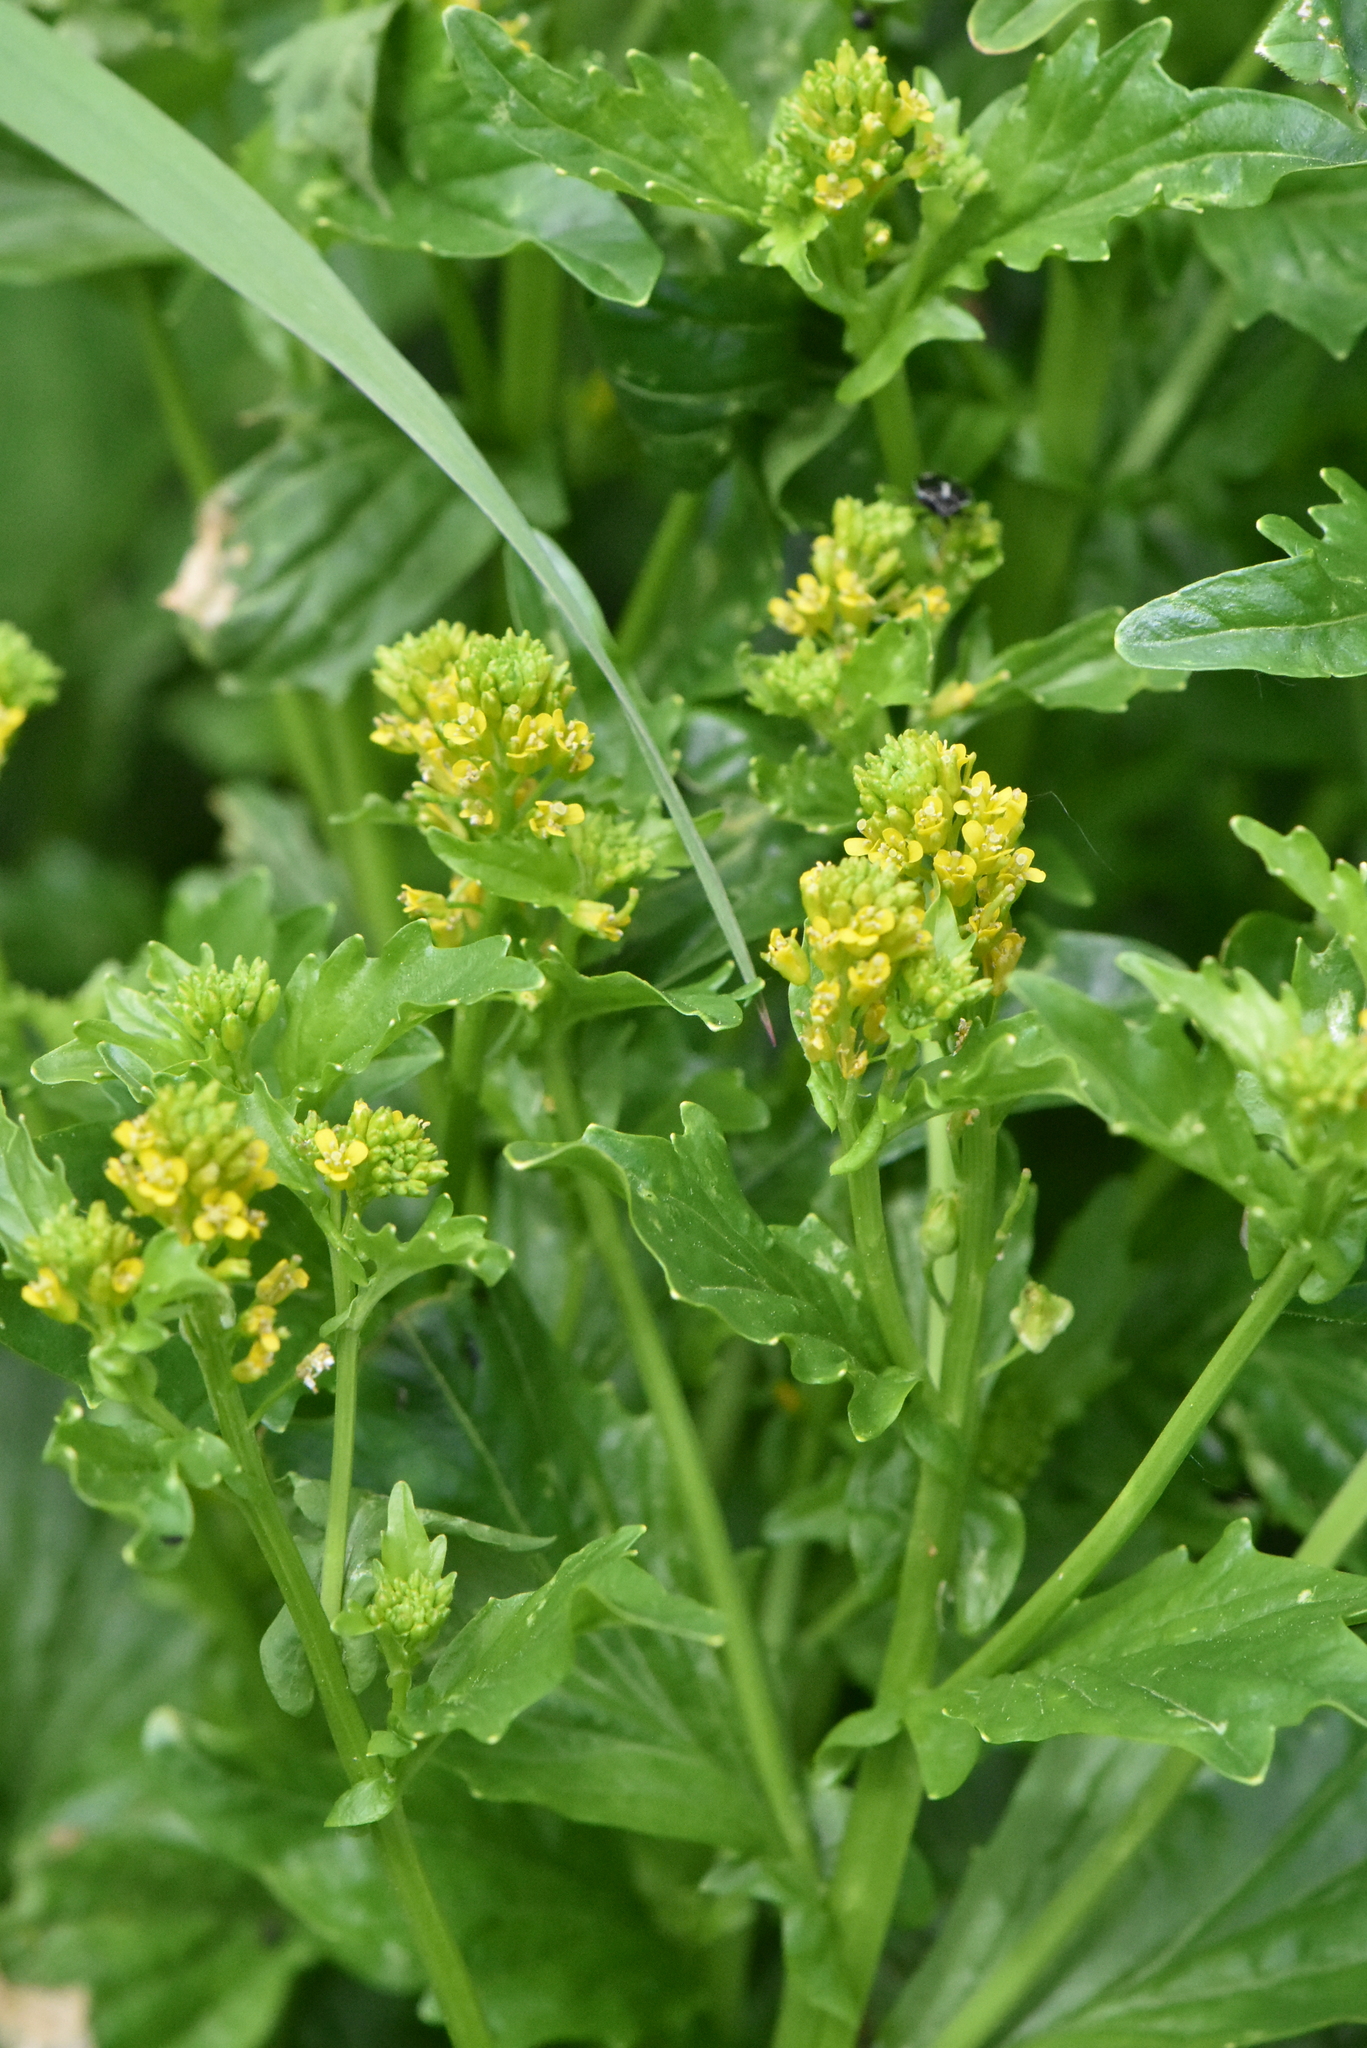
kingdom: Plantae
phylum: Tracheophyta
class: Magnoliopsida
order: Brassicales
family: Brassicaceae
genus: Barbarea
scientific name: Barbarea stricta
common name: Small-flowered winter-cress
